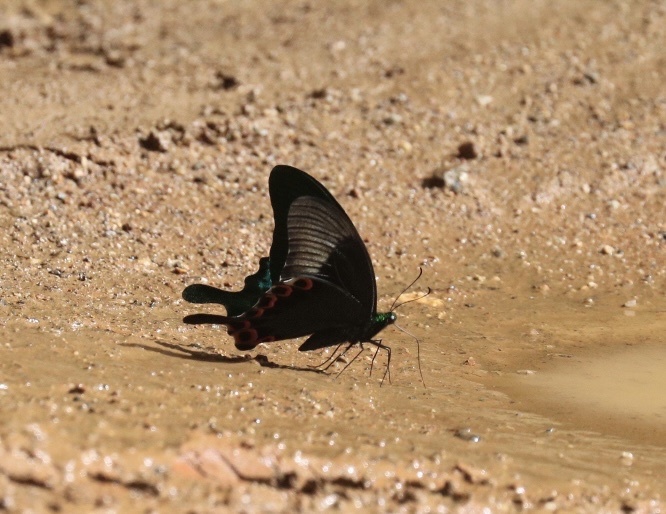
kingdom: Animalia
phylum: Arthropoda
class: Insecta
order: Lepidoptera
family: Papilionidae
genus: Papilio
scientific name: Papilio paris
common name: Paris peacock
